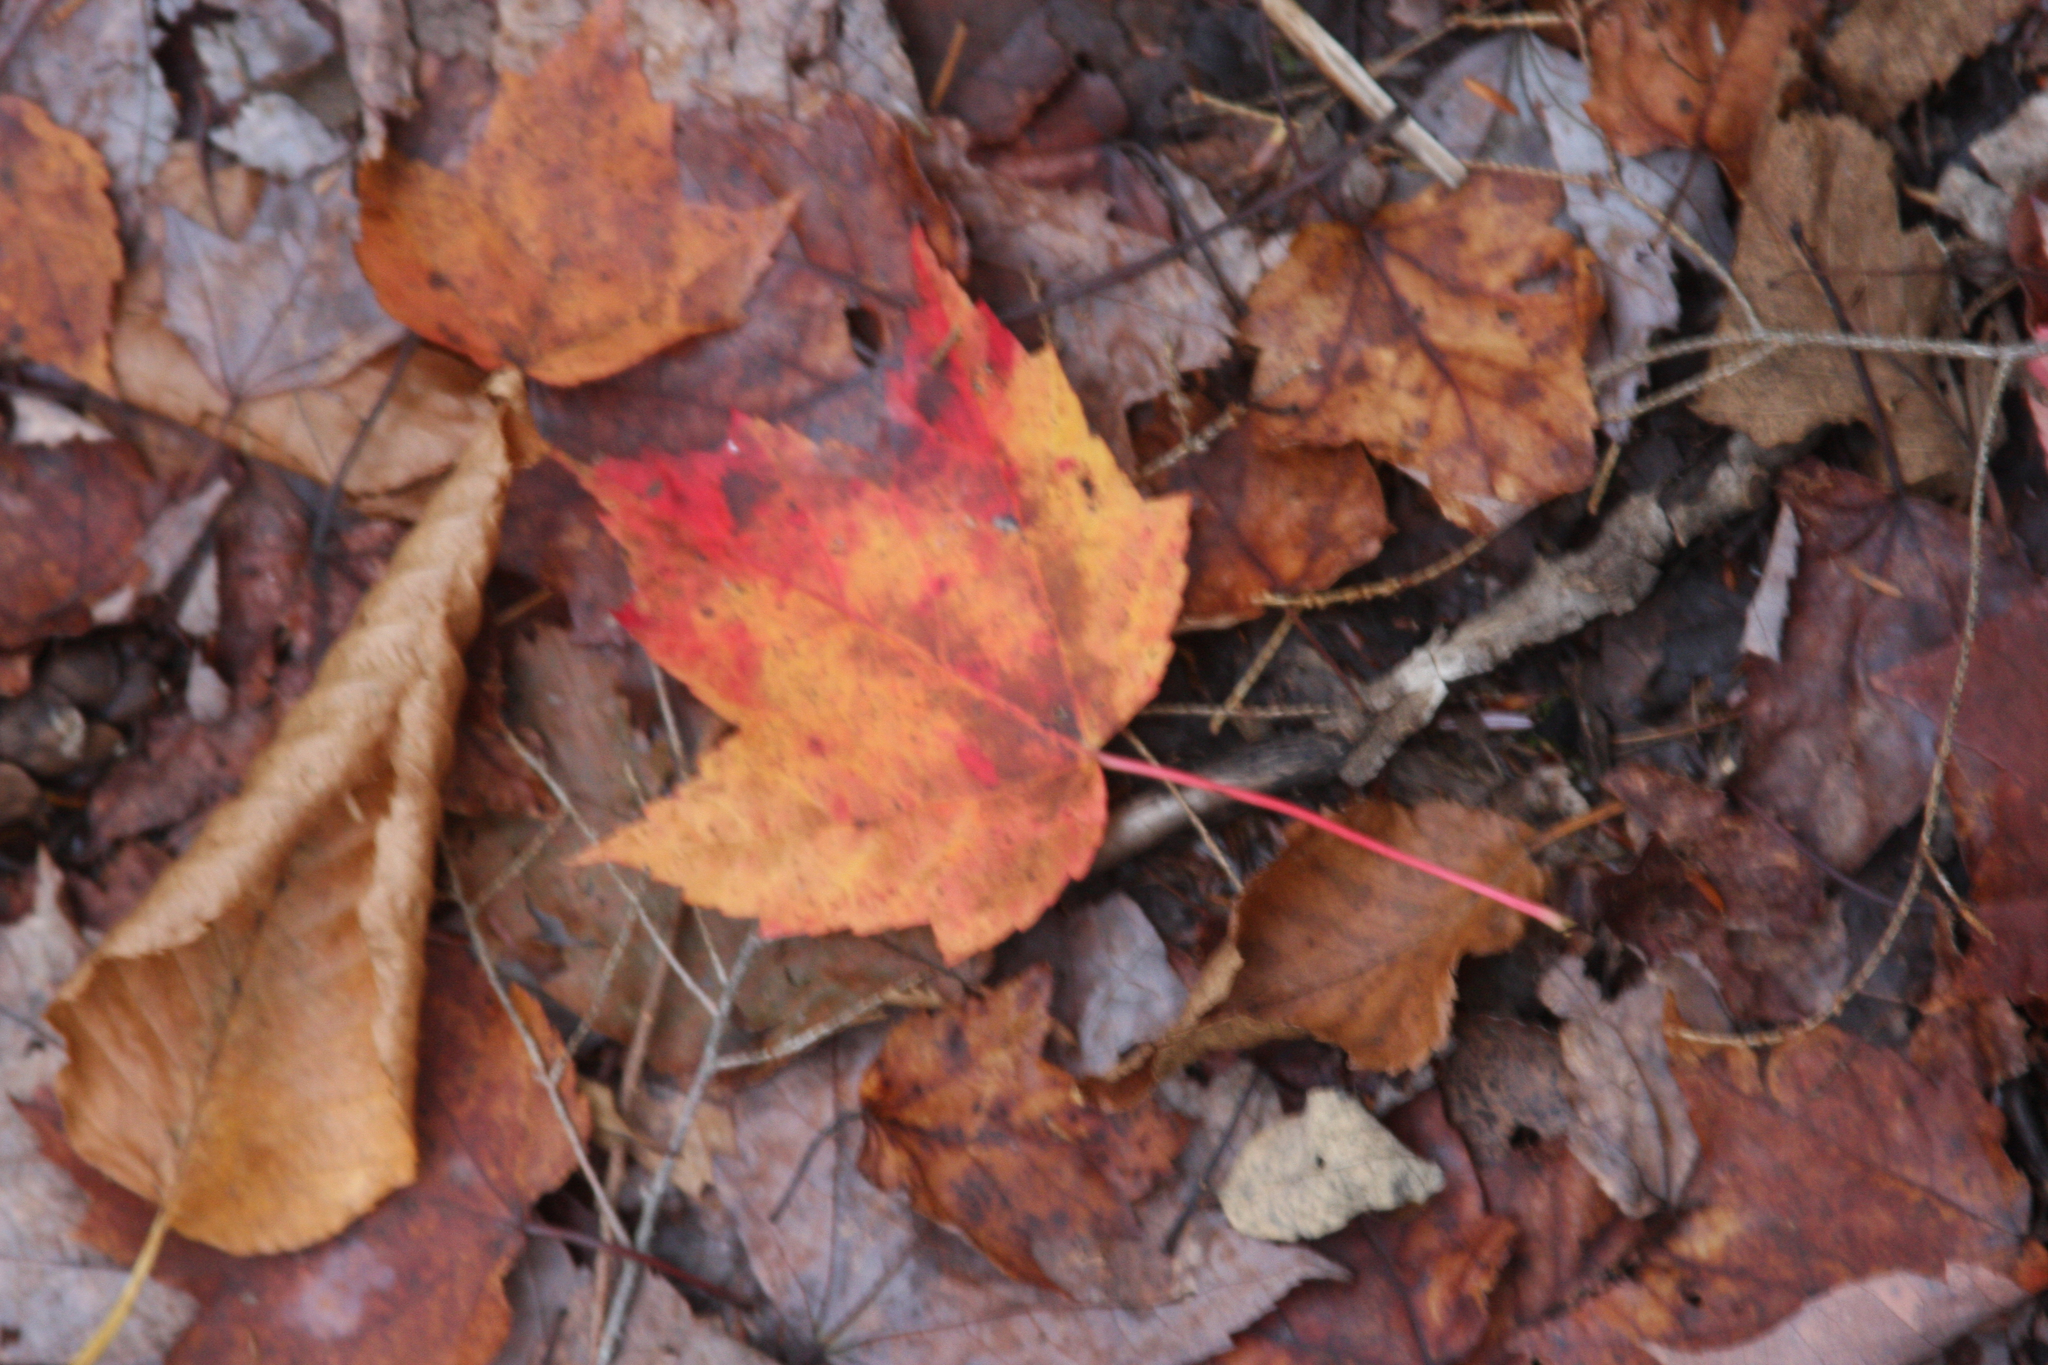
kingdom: Plantae
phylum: Tracheophyta
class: Magnoliopsida
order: Sapindales
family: Sapindaceae
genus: Acer
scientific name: Acer rubrum
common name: Red maple
